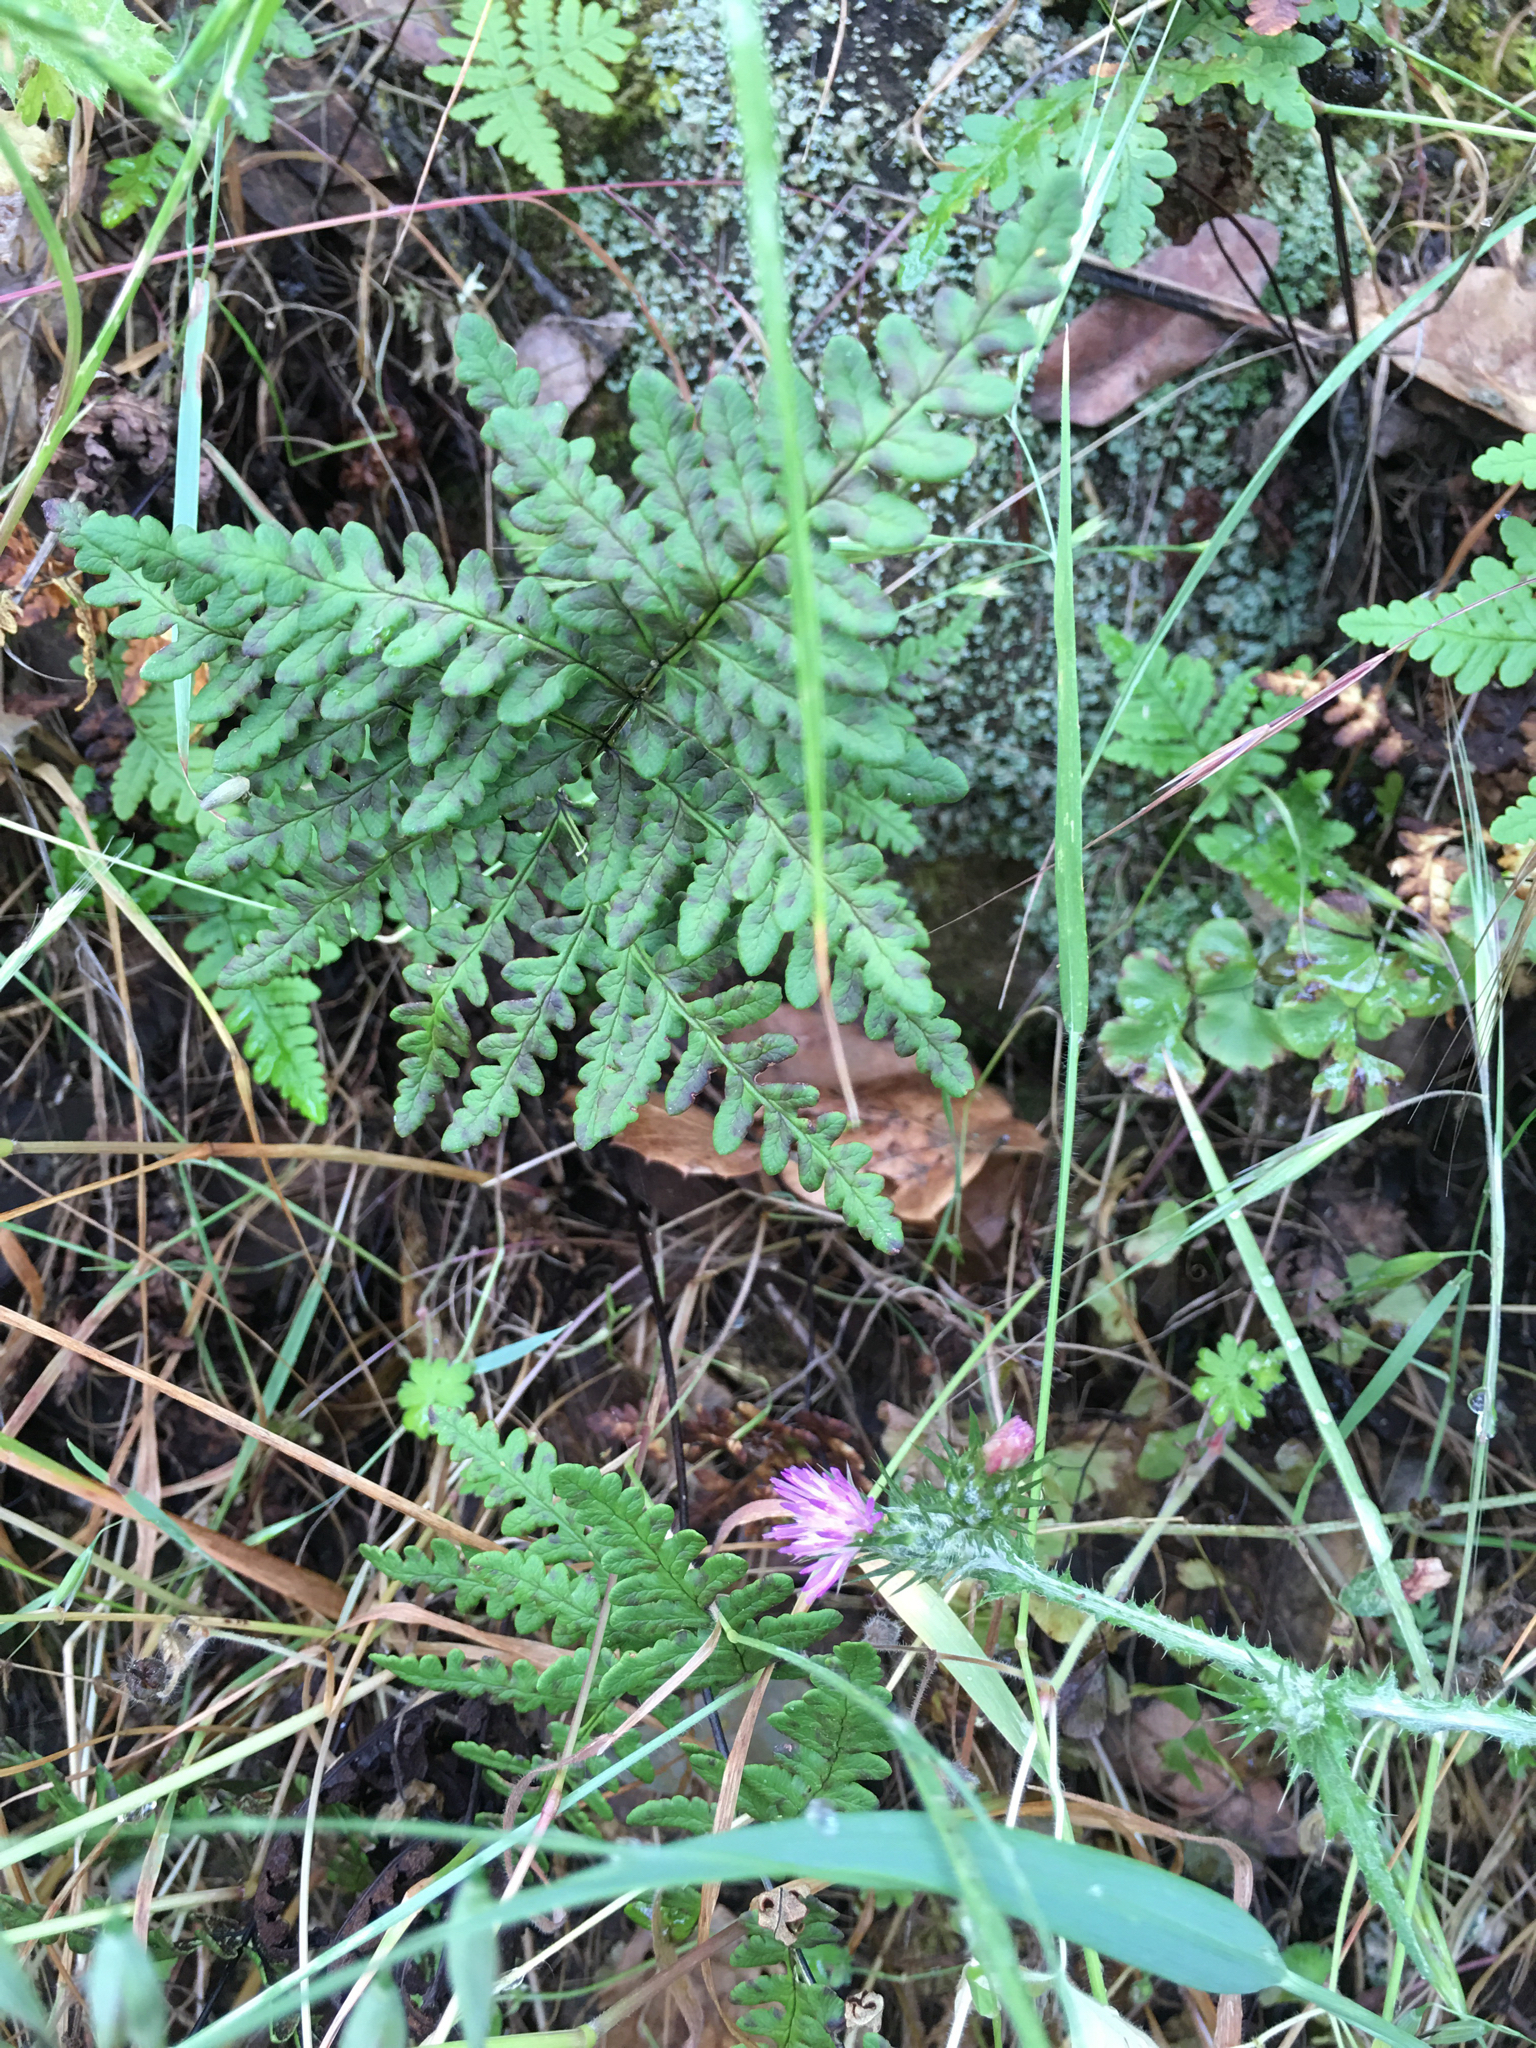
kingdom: Plantae
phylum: Tracheophyta
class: Polypodiopsida
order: Polypodiales
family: Pteridaceae
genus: Pentagramma
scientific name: Pentagramma triangularis
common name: Gold fern
